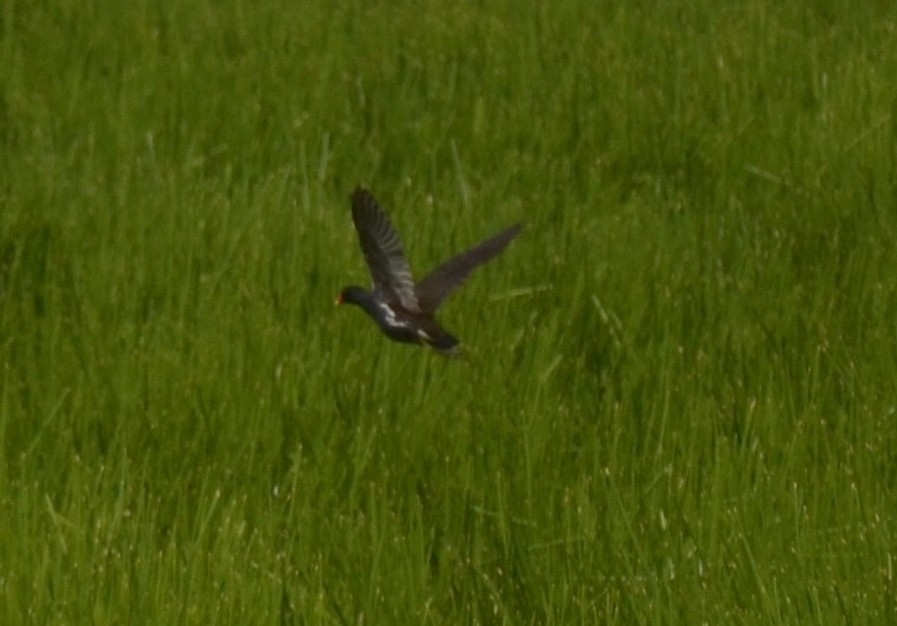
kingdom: Animalia
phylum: Chordata
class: Aves
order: Gruiformes
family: Rallidae
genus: Gallinula
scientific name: Gallinula chloropus
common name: Common moorhen
